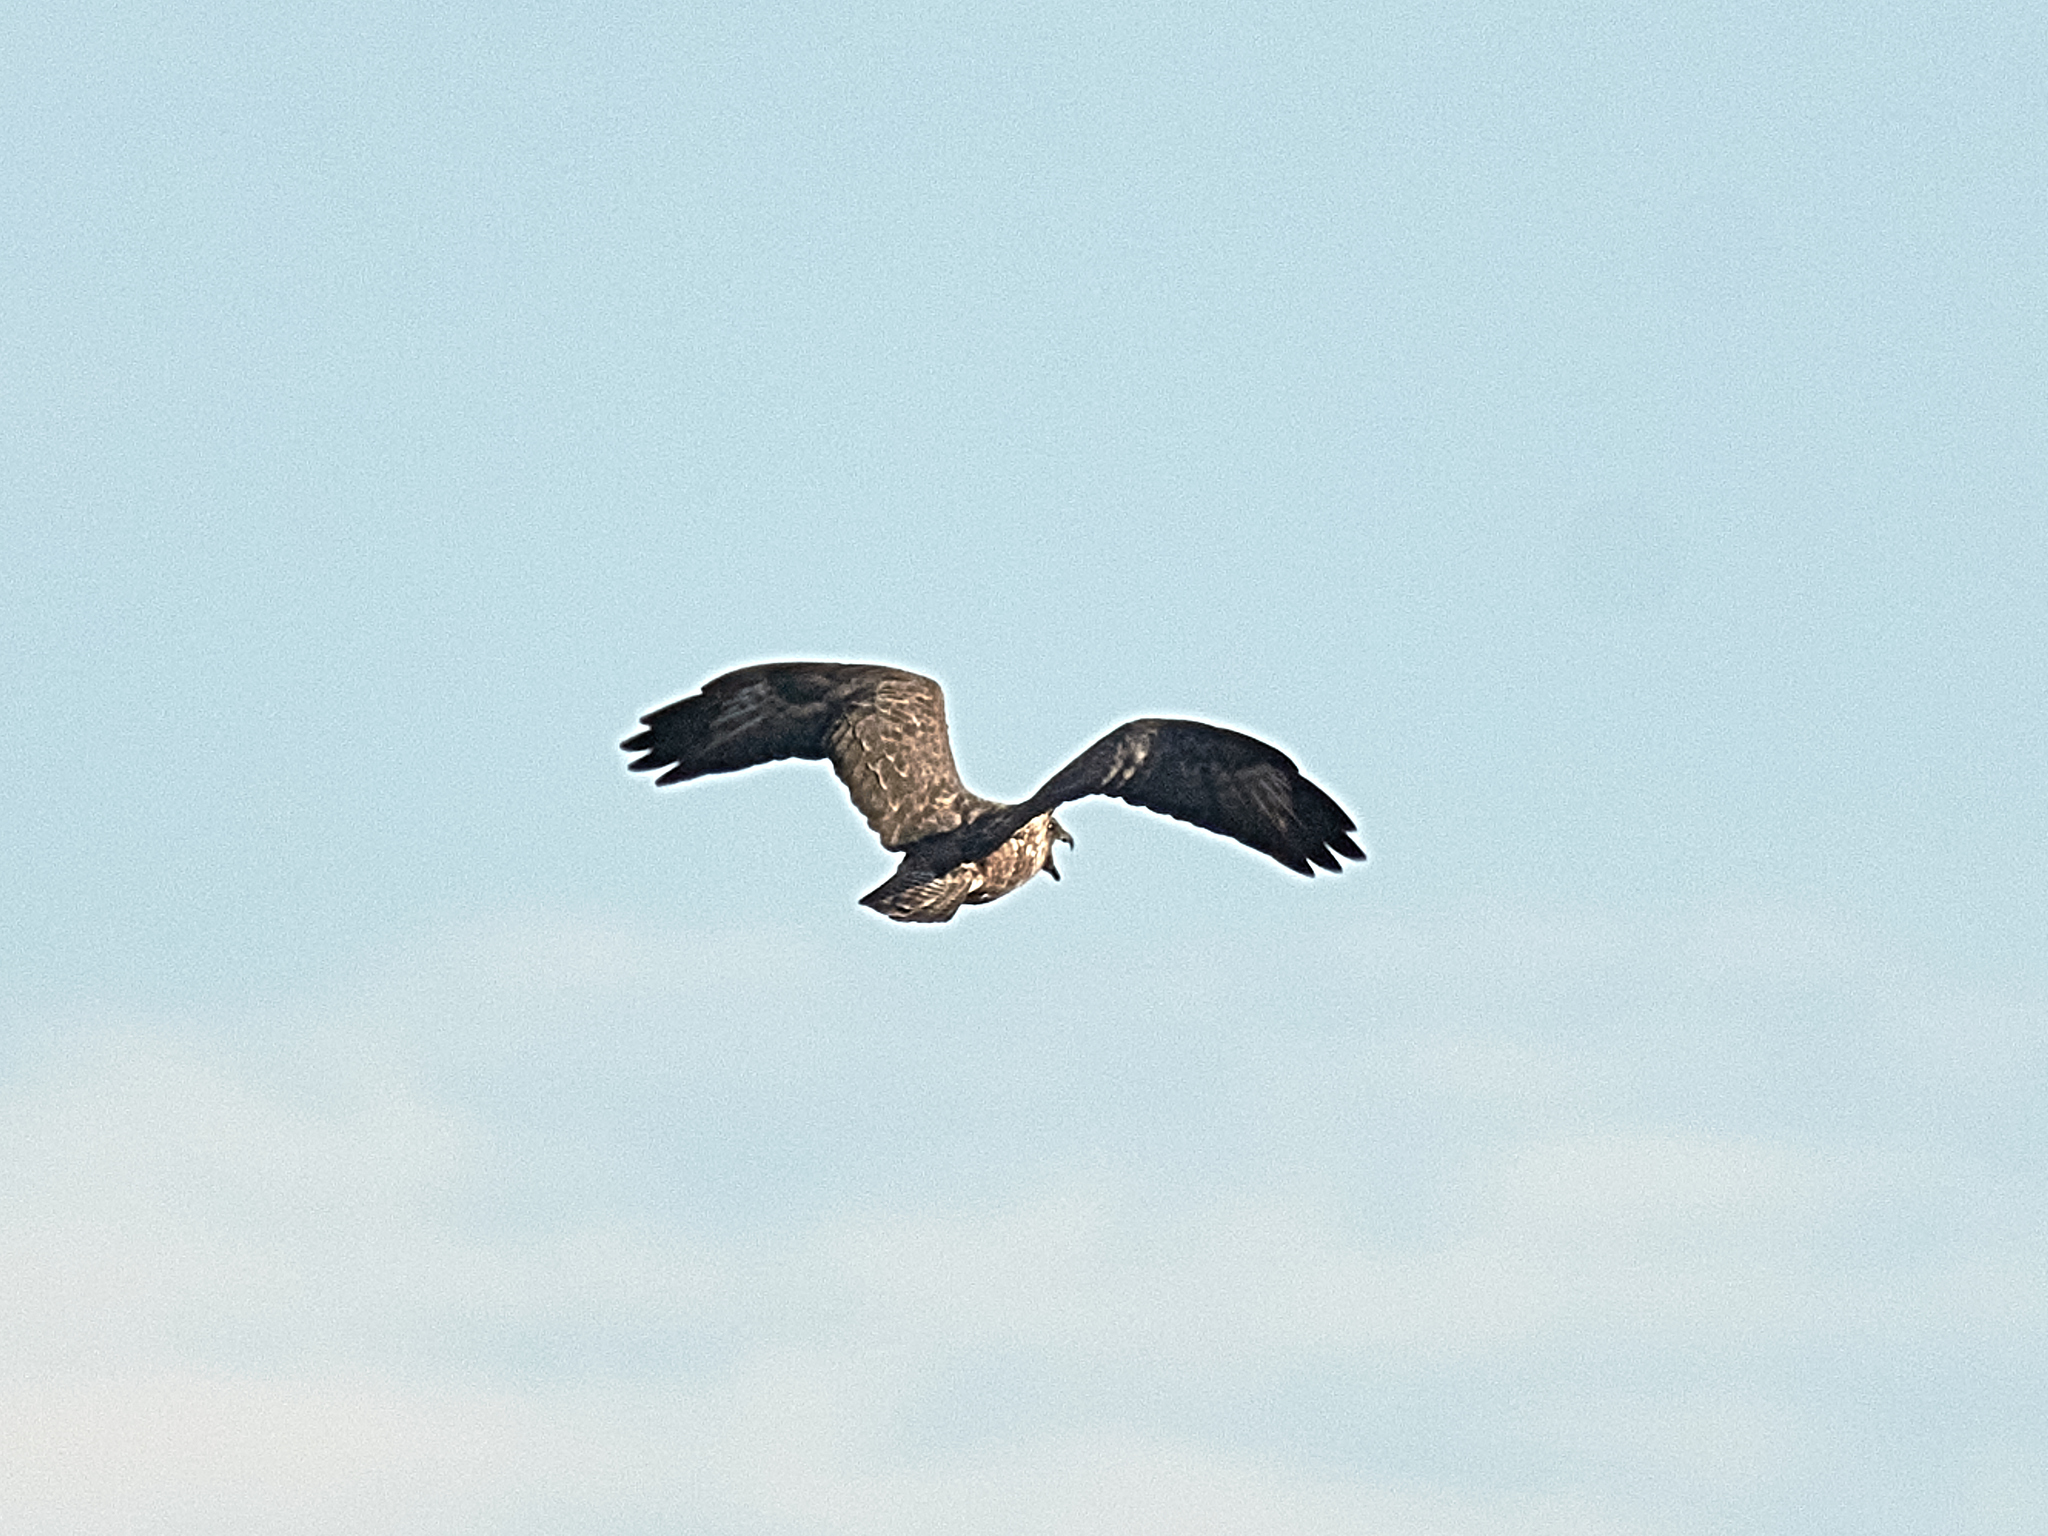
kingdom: Animalia
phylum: Chordata
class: Aves
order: Accipitriformes
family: Accipitridae
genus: Buteo
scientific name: Buteo buteo
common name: Common buzzard
